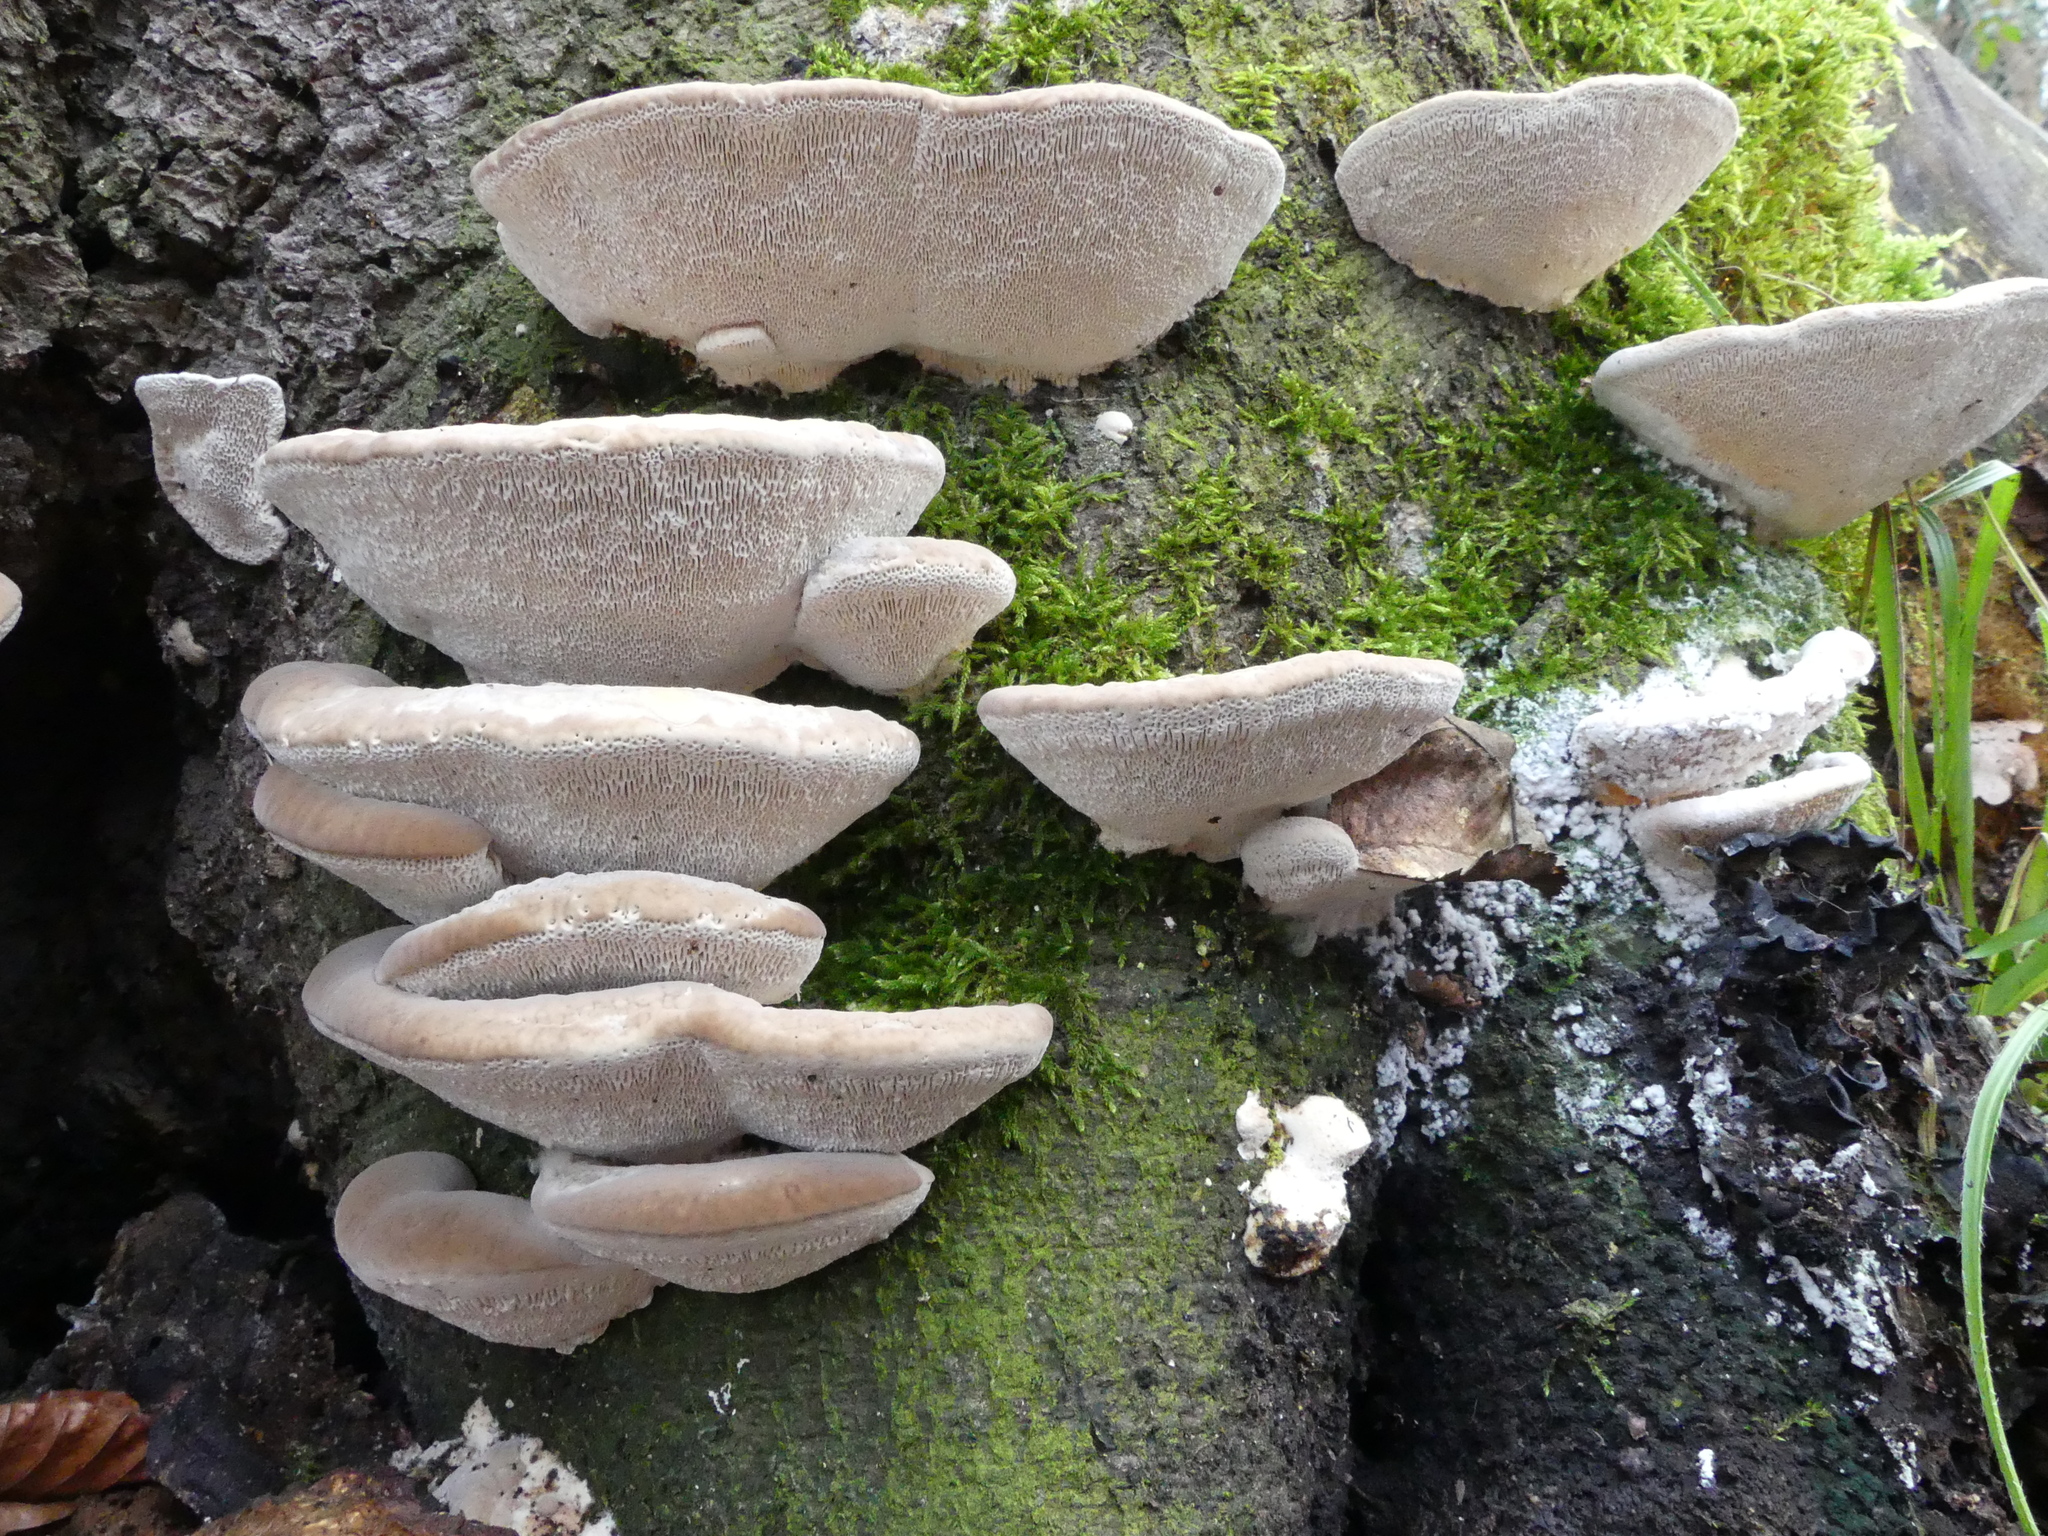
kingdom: Fungi
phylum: Basidiomycota
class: Agaricomycetes
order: Polyporales
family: Polyporaceae
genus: Trametes
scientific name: Trametes gibbosa
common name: Lumpy bracket
